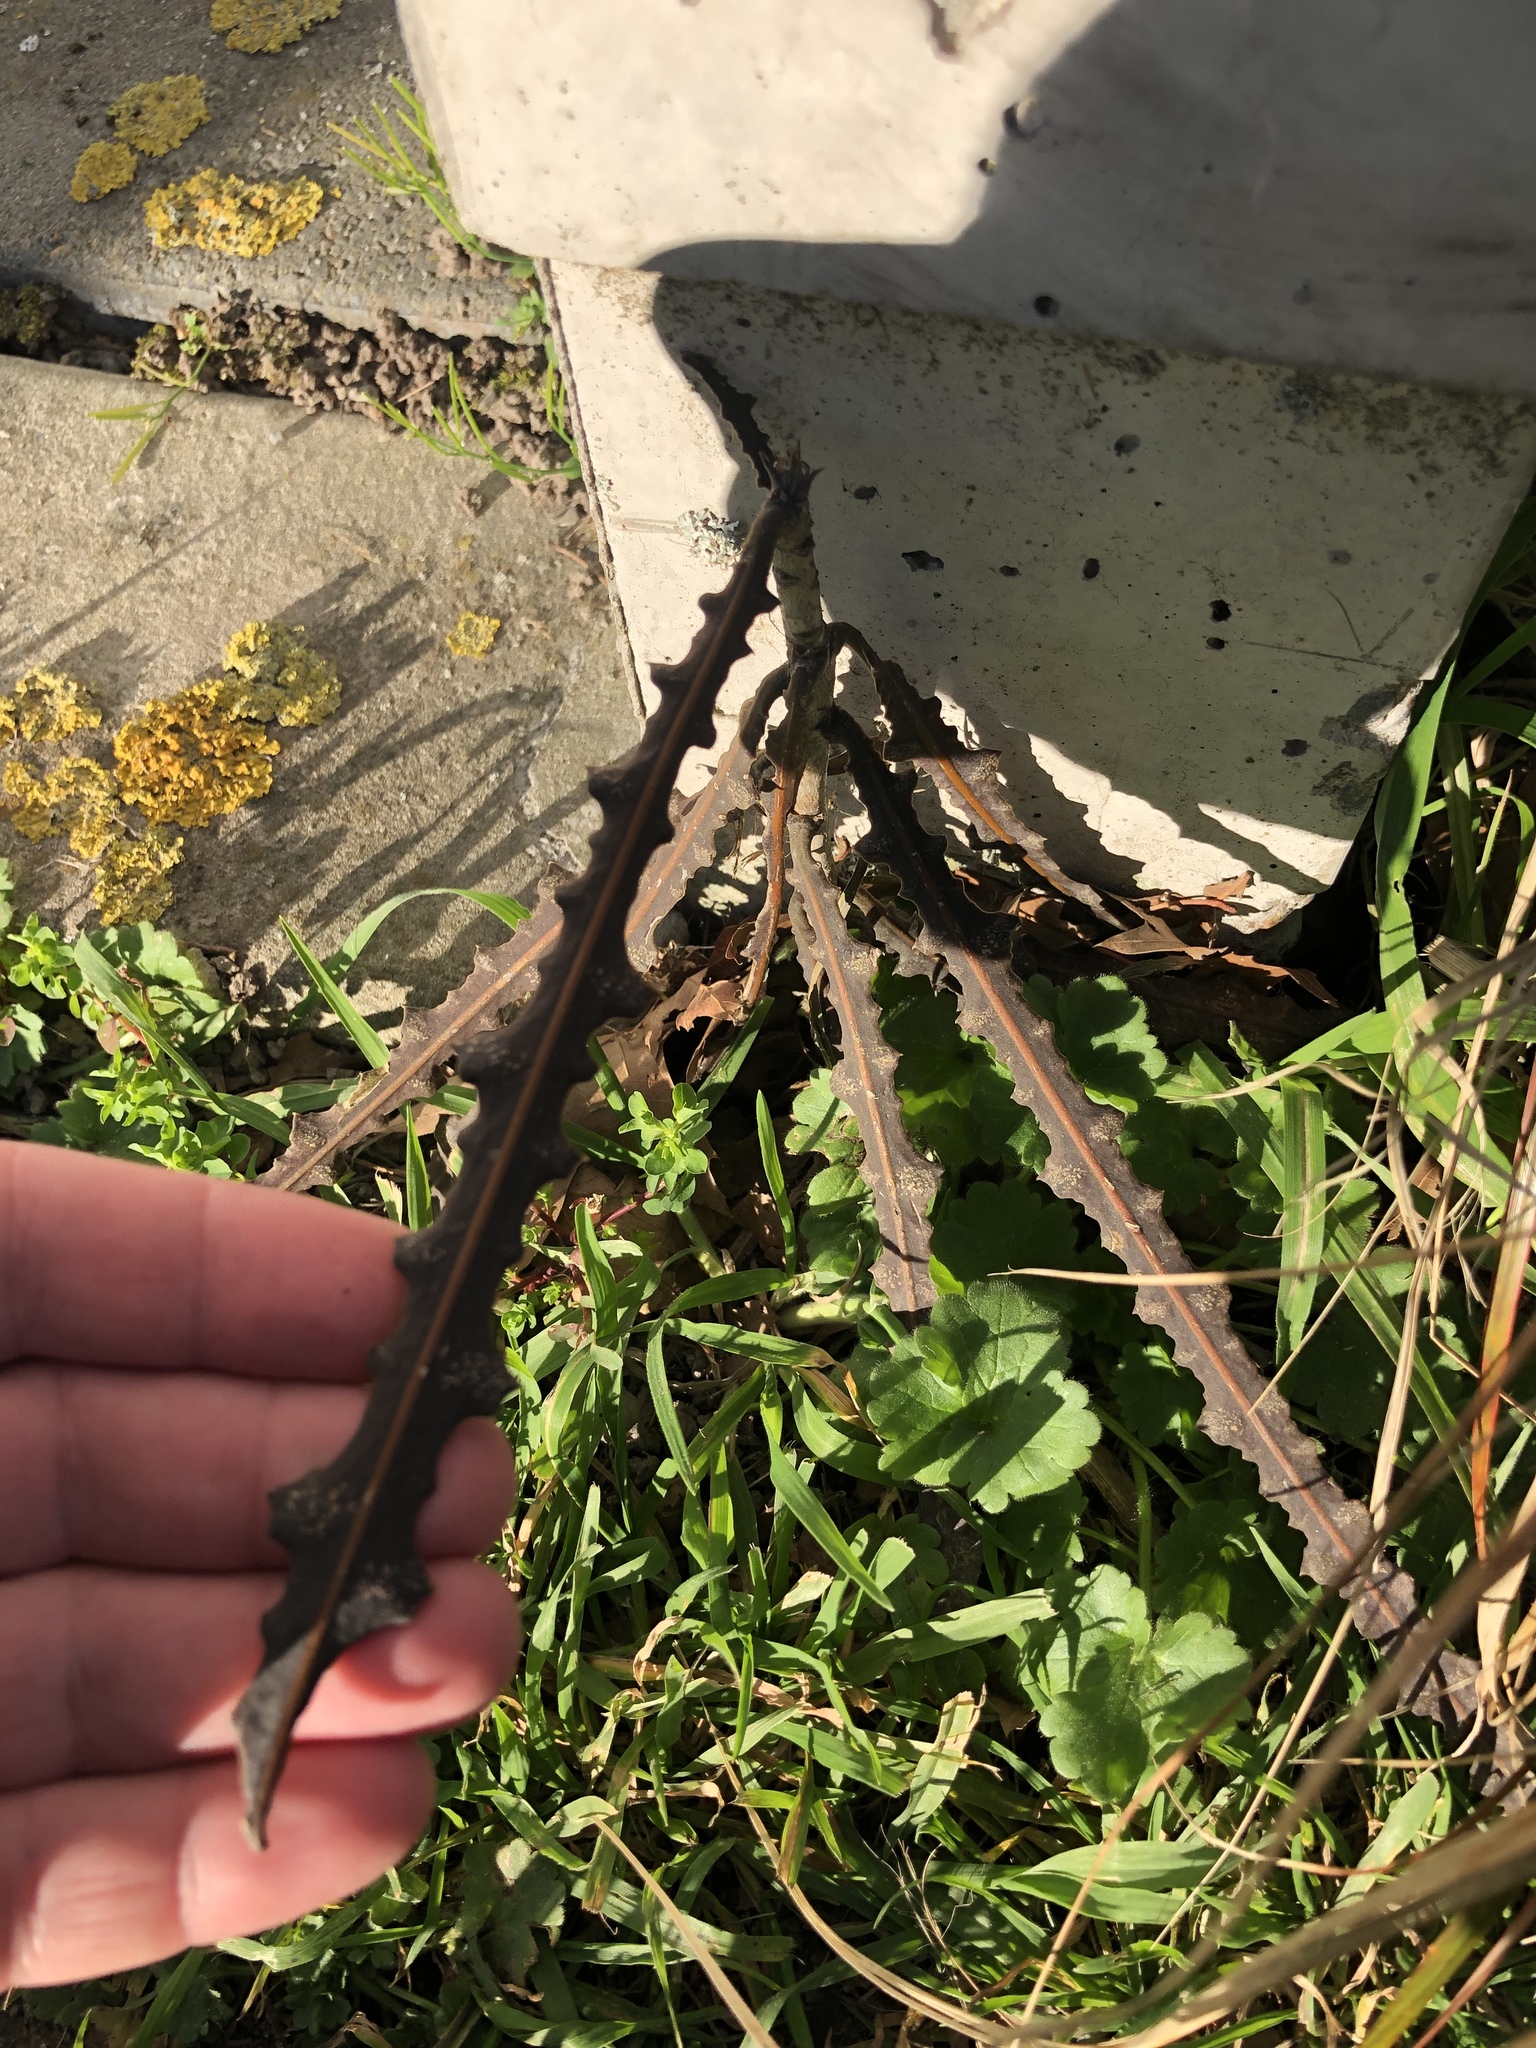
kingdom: Plantae
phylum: Tracheophyta
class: Magnoliopsida
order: Apiales
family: Araliaceae
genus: Pseudopanax
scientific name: Pseudopanax ferox
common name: Fierce lancewood
